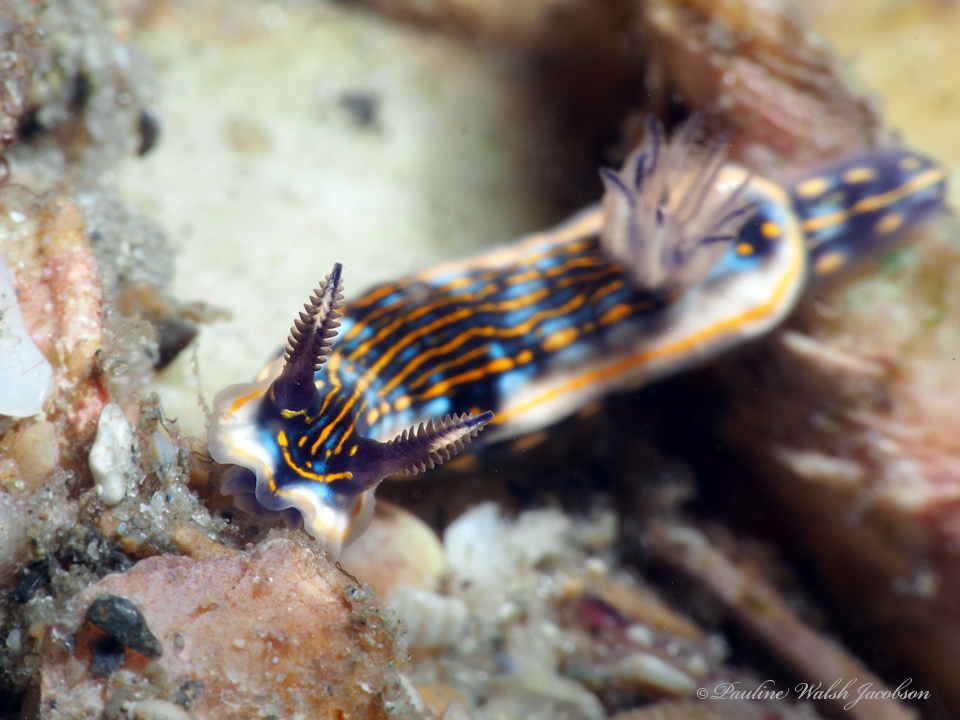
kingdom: Animalia
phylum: Mollusca
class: Gastropoda
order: Nudibranchia
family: Chromodorididae
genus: Felimare
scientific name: Felimare ruthae
